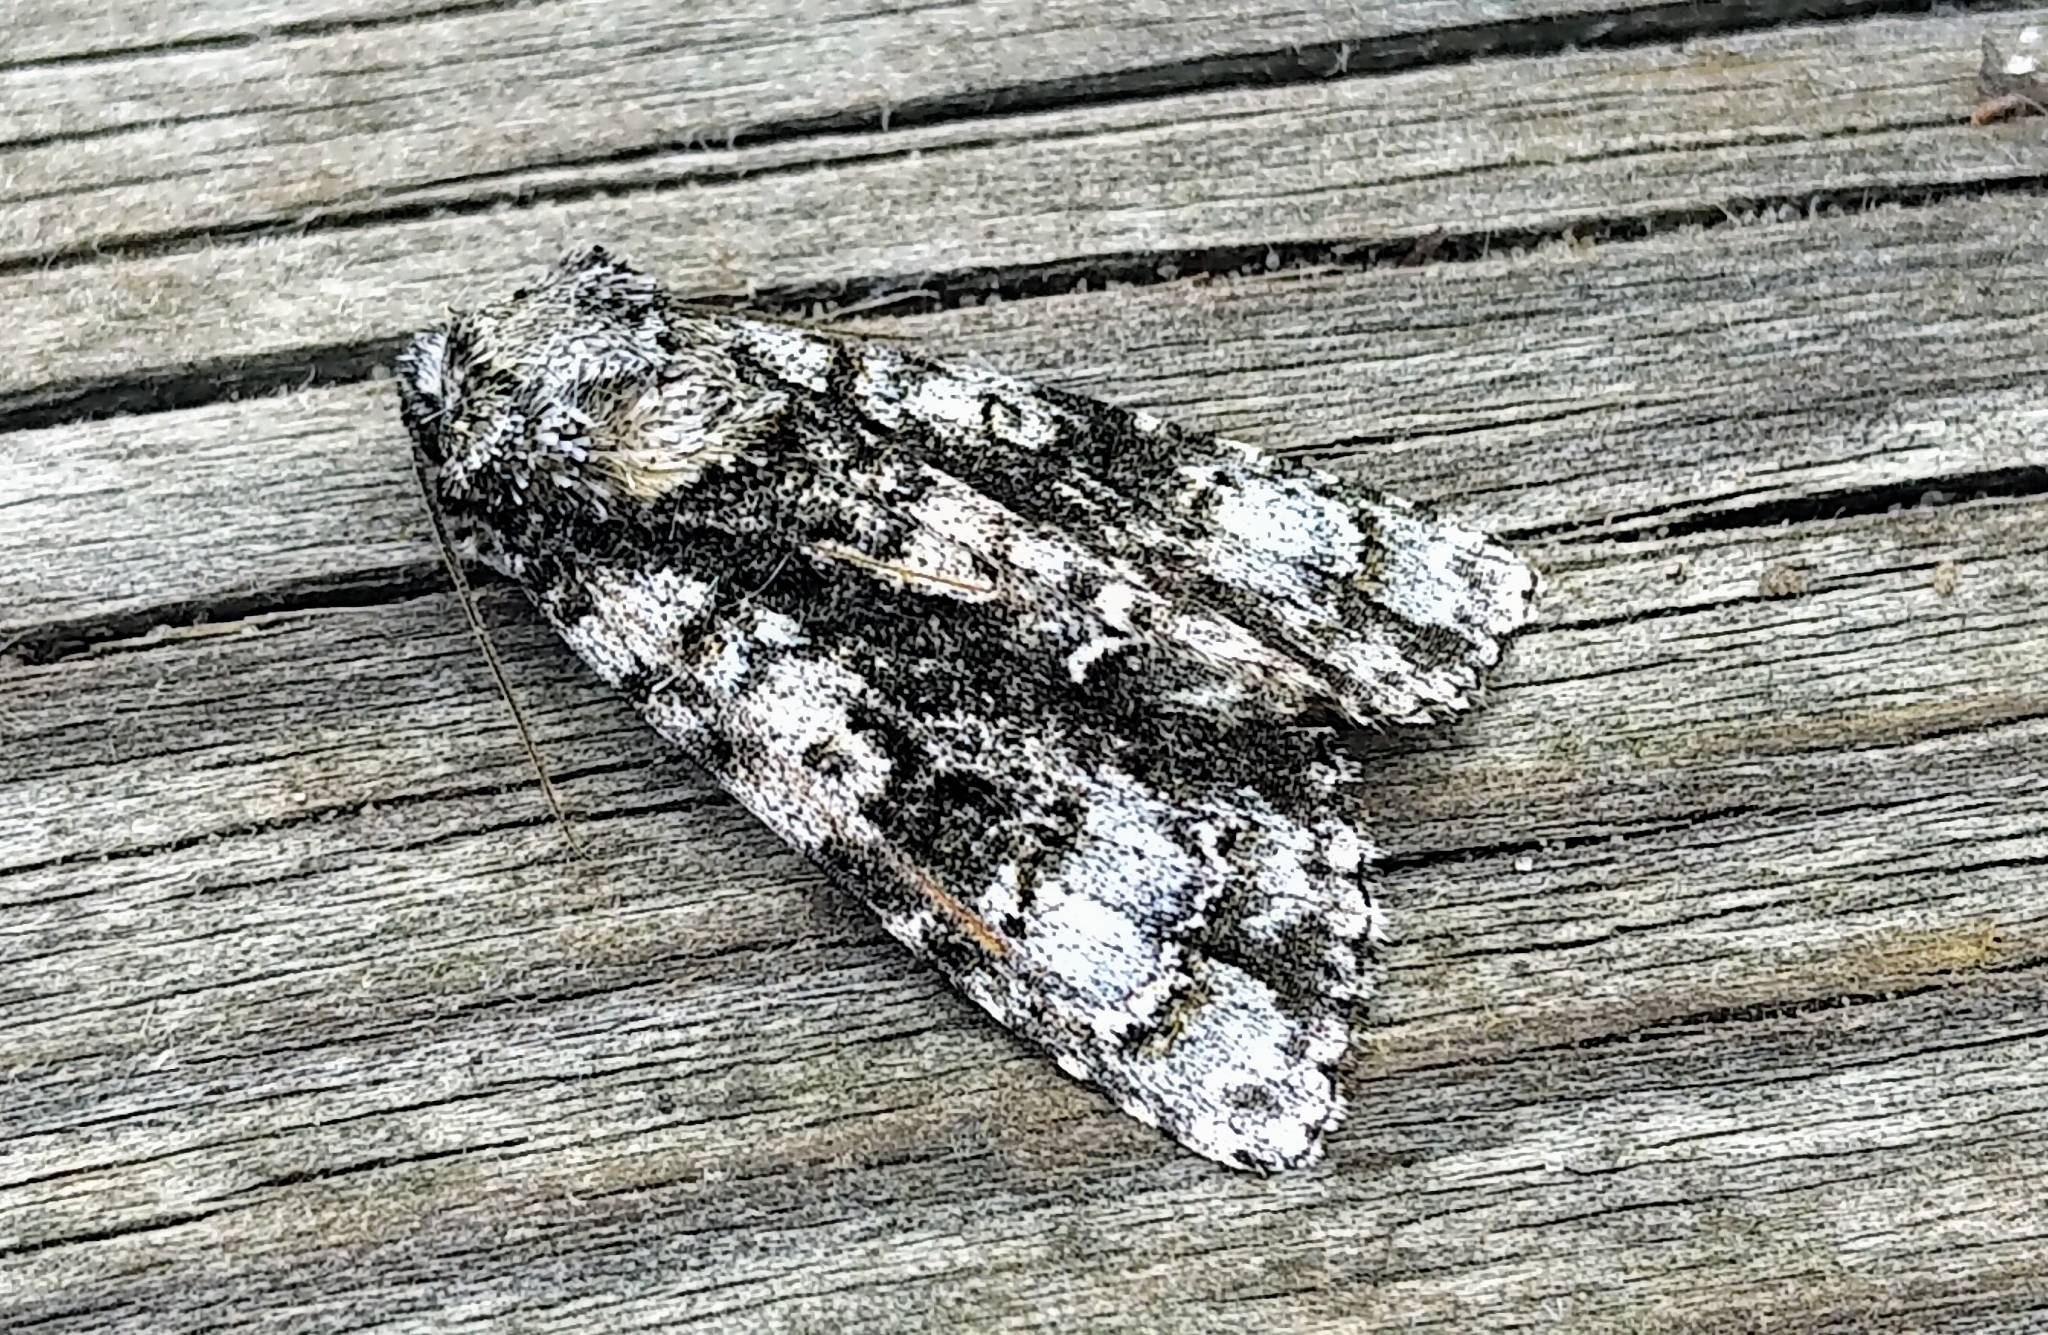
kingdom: Animalia
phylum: Arthropoda
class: Insecta
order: Lepidoptera
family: Noctuidae
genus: Acronicta
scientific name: Acronicta superans
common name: Splendid dagger
